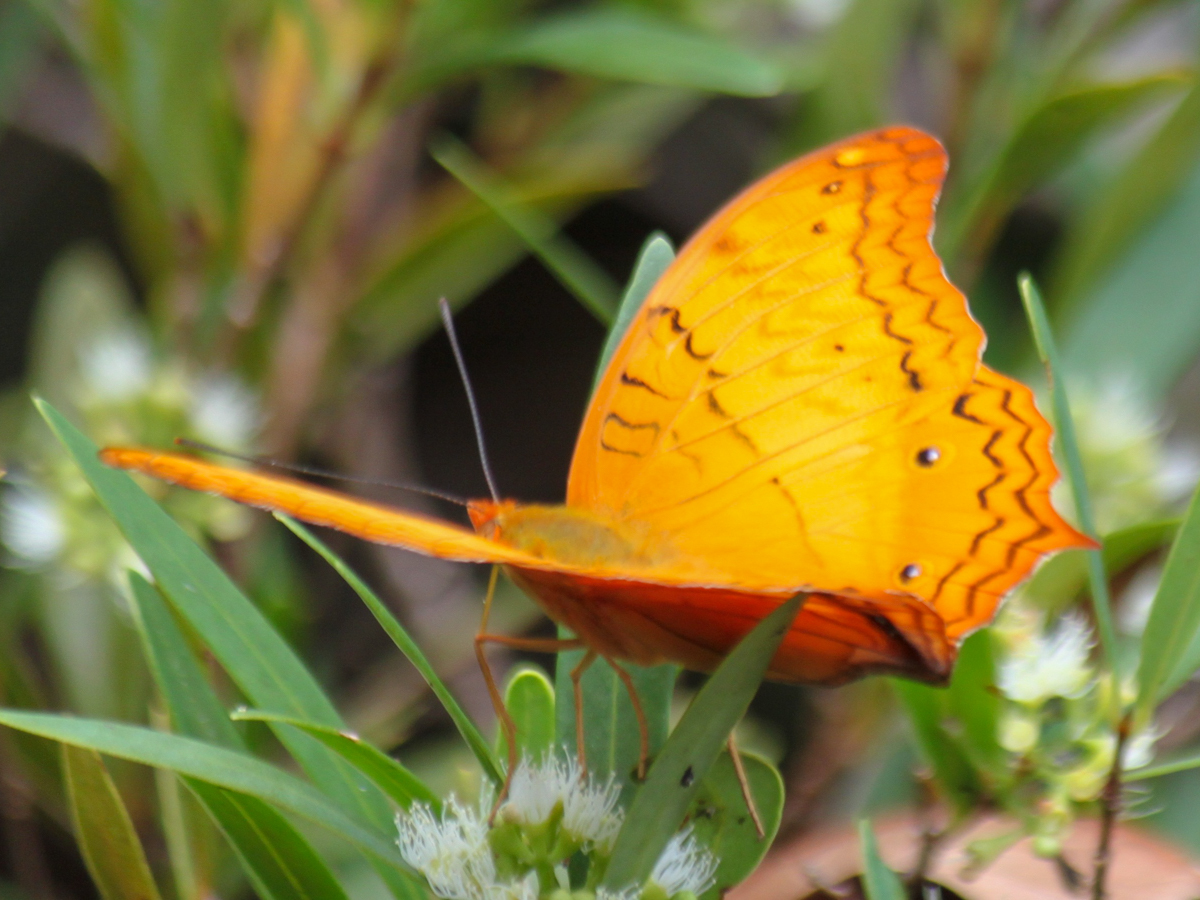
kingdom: Animalia
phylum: Arthropoda
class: Insecta
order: Lepidoptera
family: Nymphalidae
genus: Vindula
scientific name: Vindula erota
